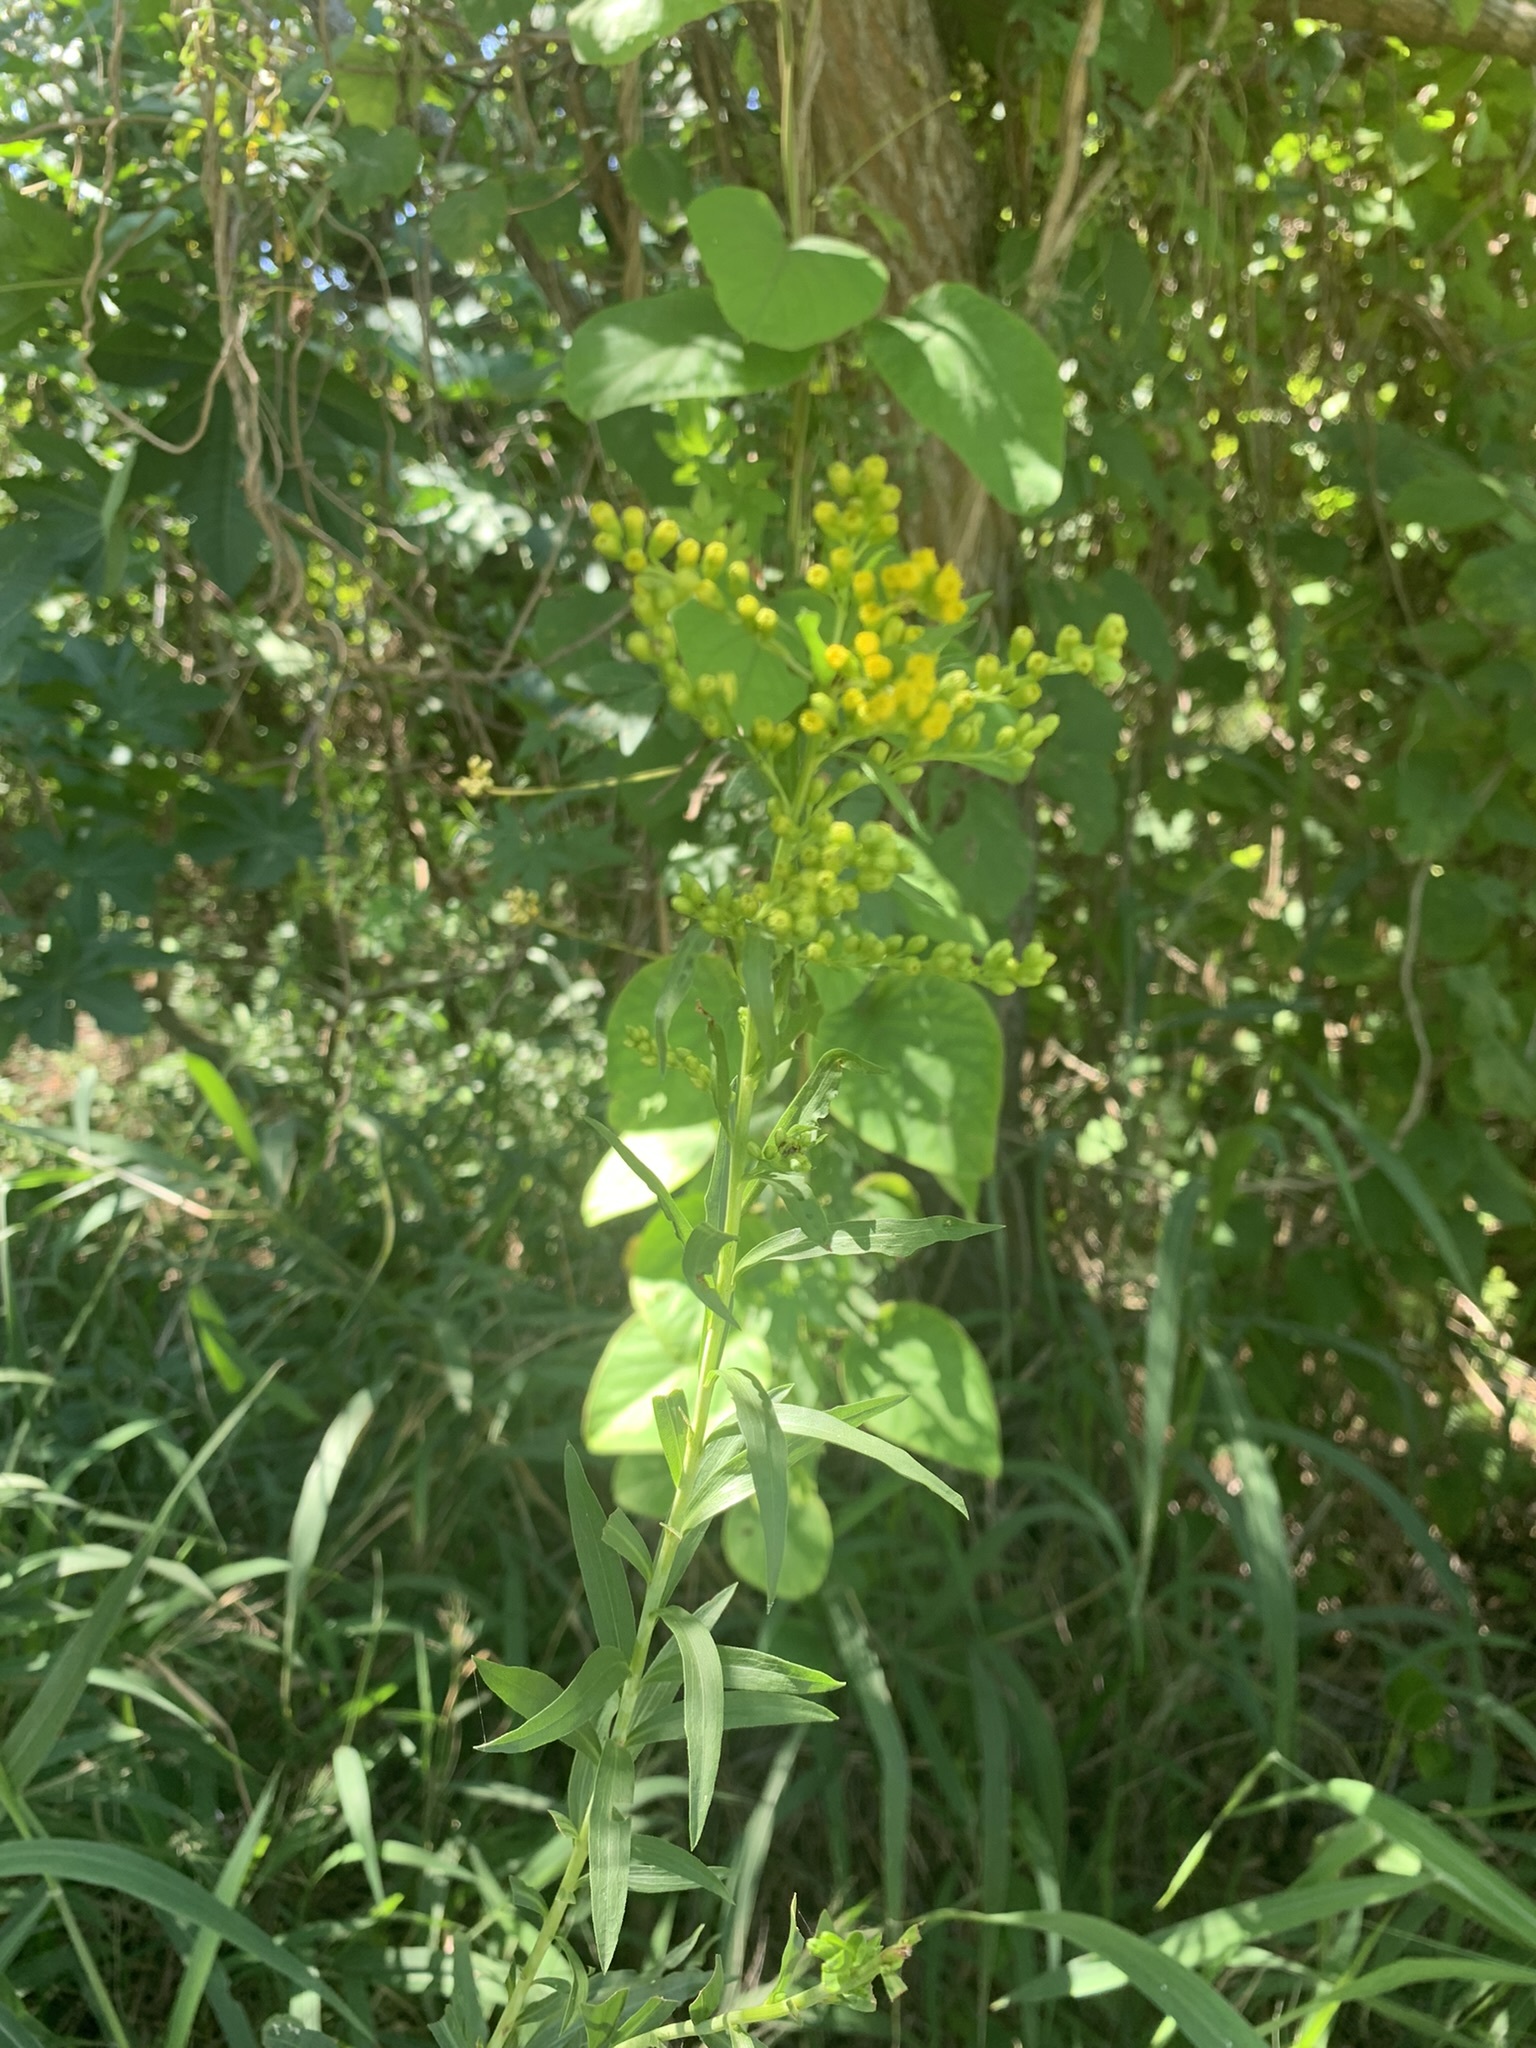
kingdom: Plantae
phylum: Tracheophyta
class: Magnoliopsida
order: Asterales
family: Asteraceae
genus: Solidago
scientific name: Solidago chilensis
